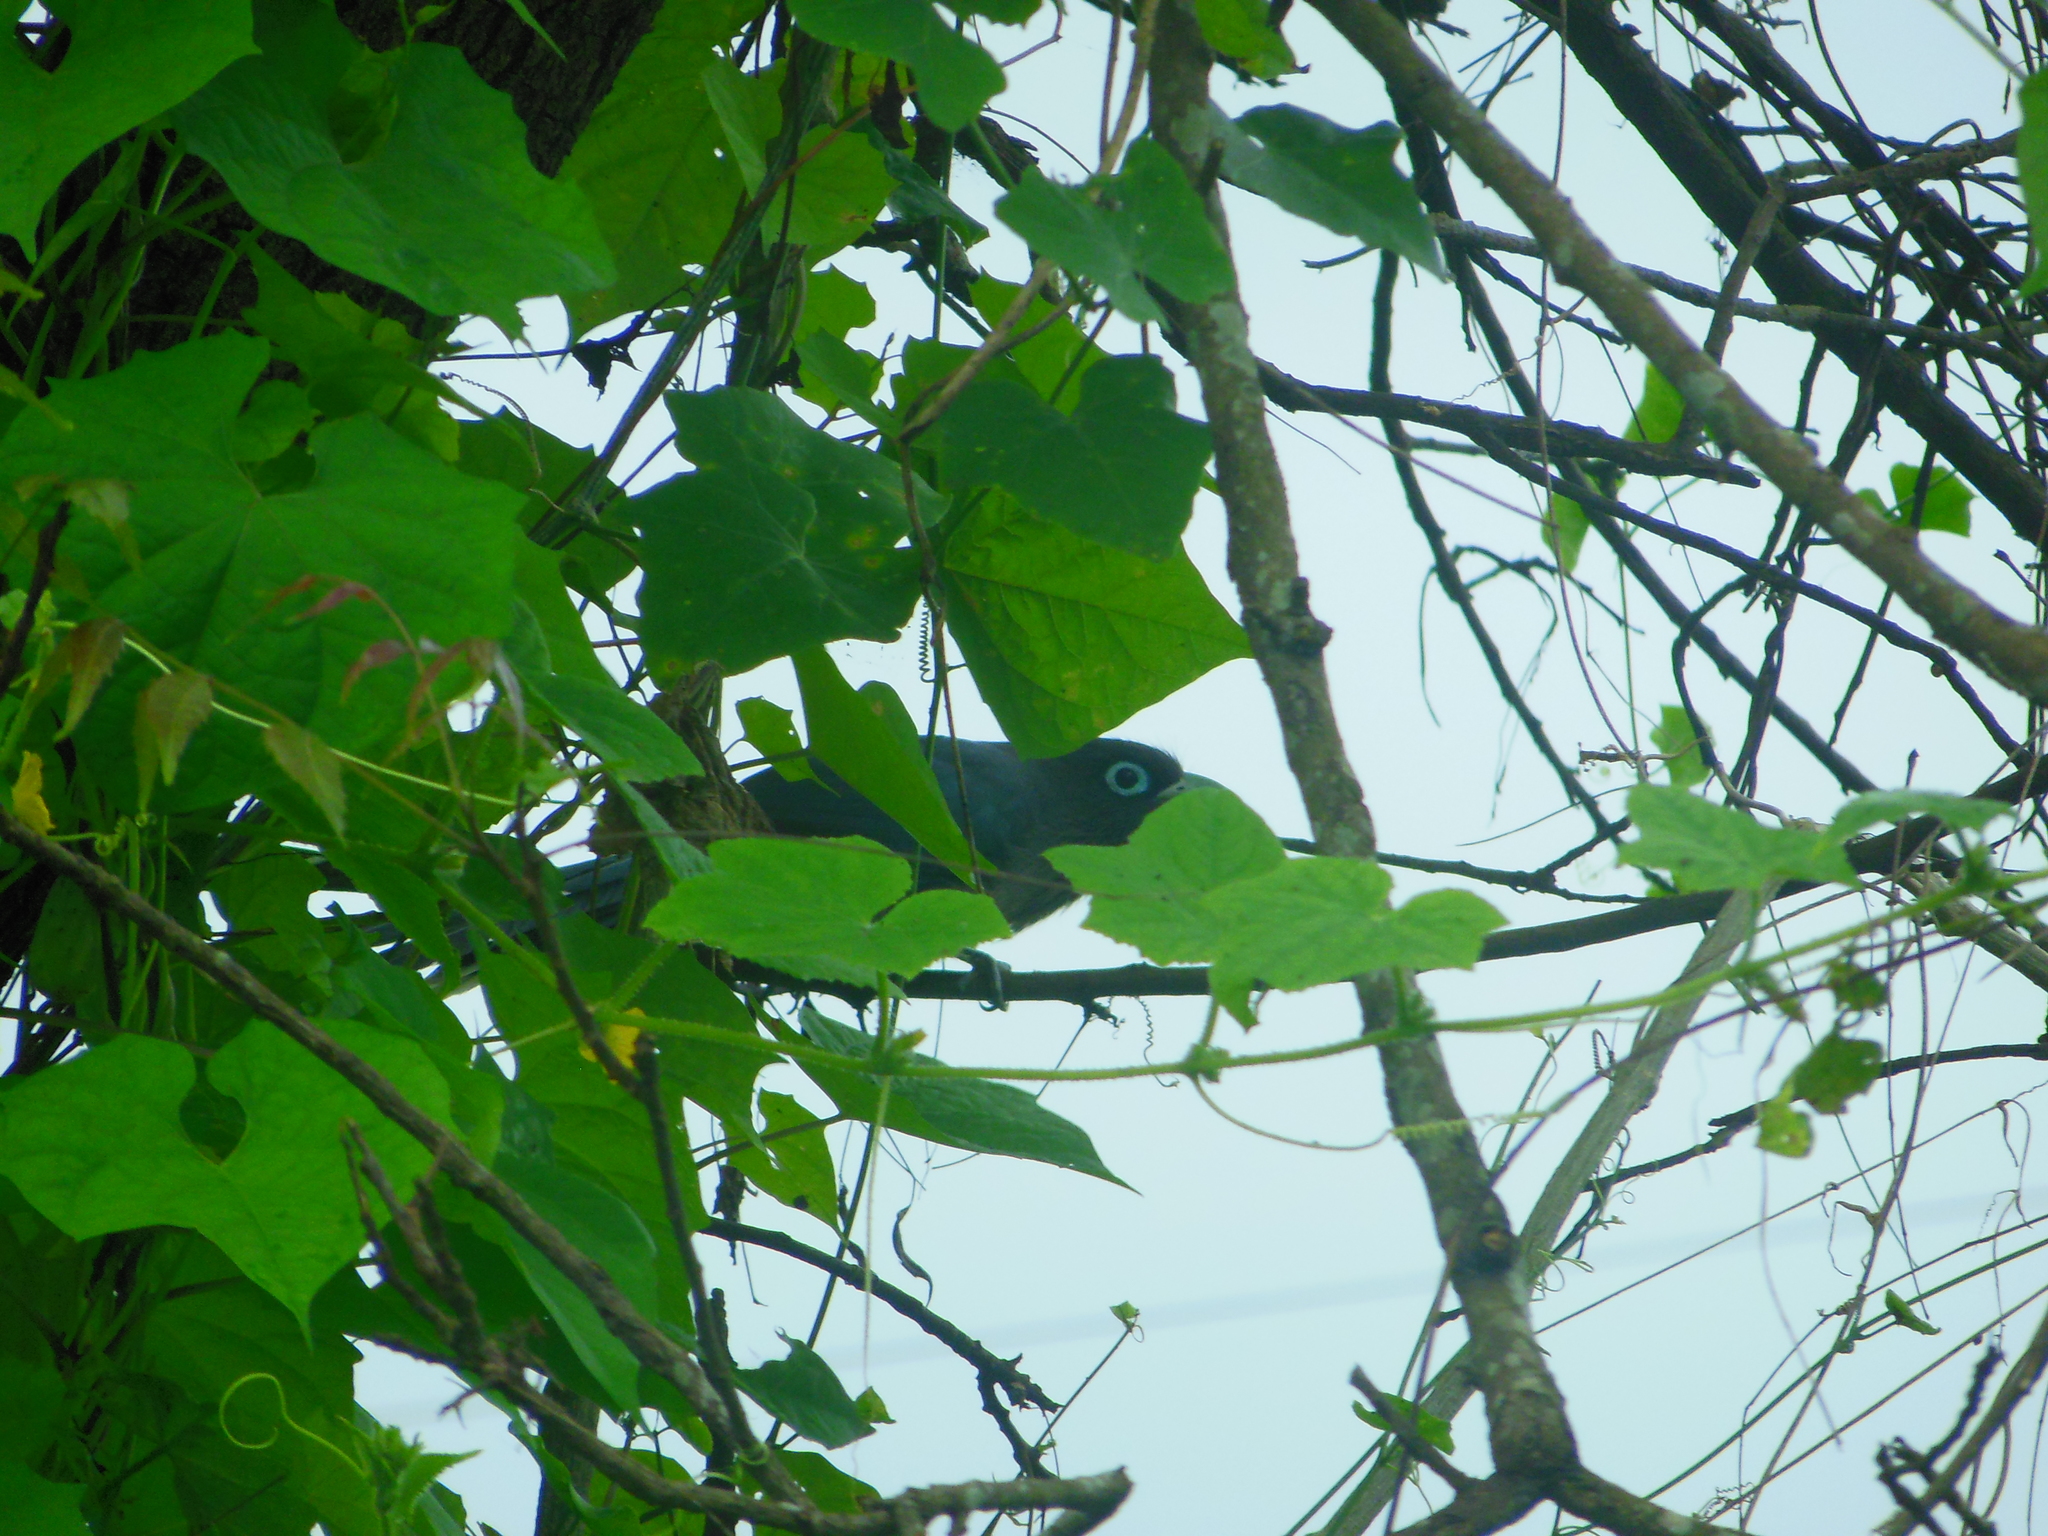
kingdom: Animalia
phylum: Chordata
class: Aves
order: Cuculiformes
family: Cuculidae
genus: Rhopodytes
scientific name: Rhopodytes viridirostris
